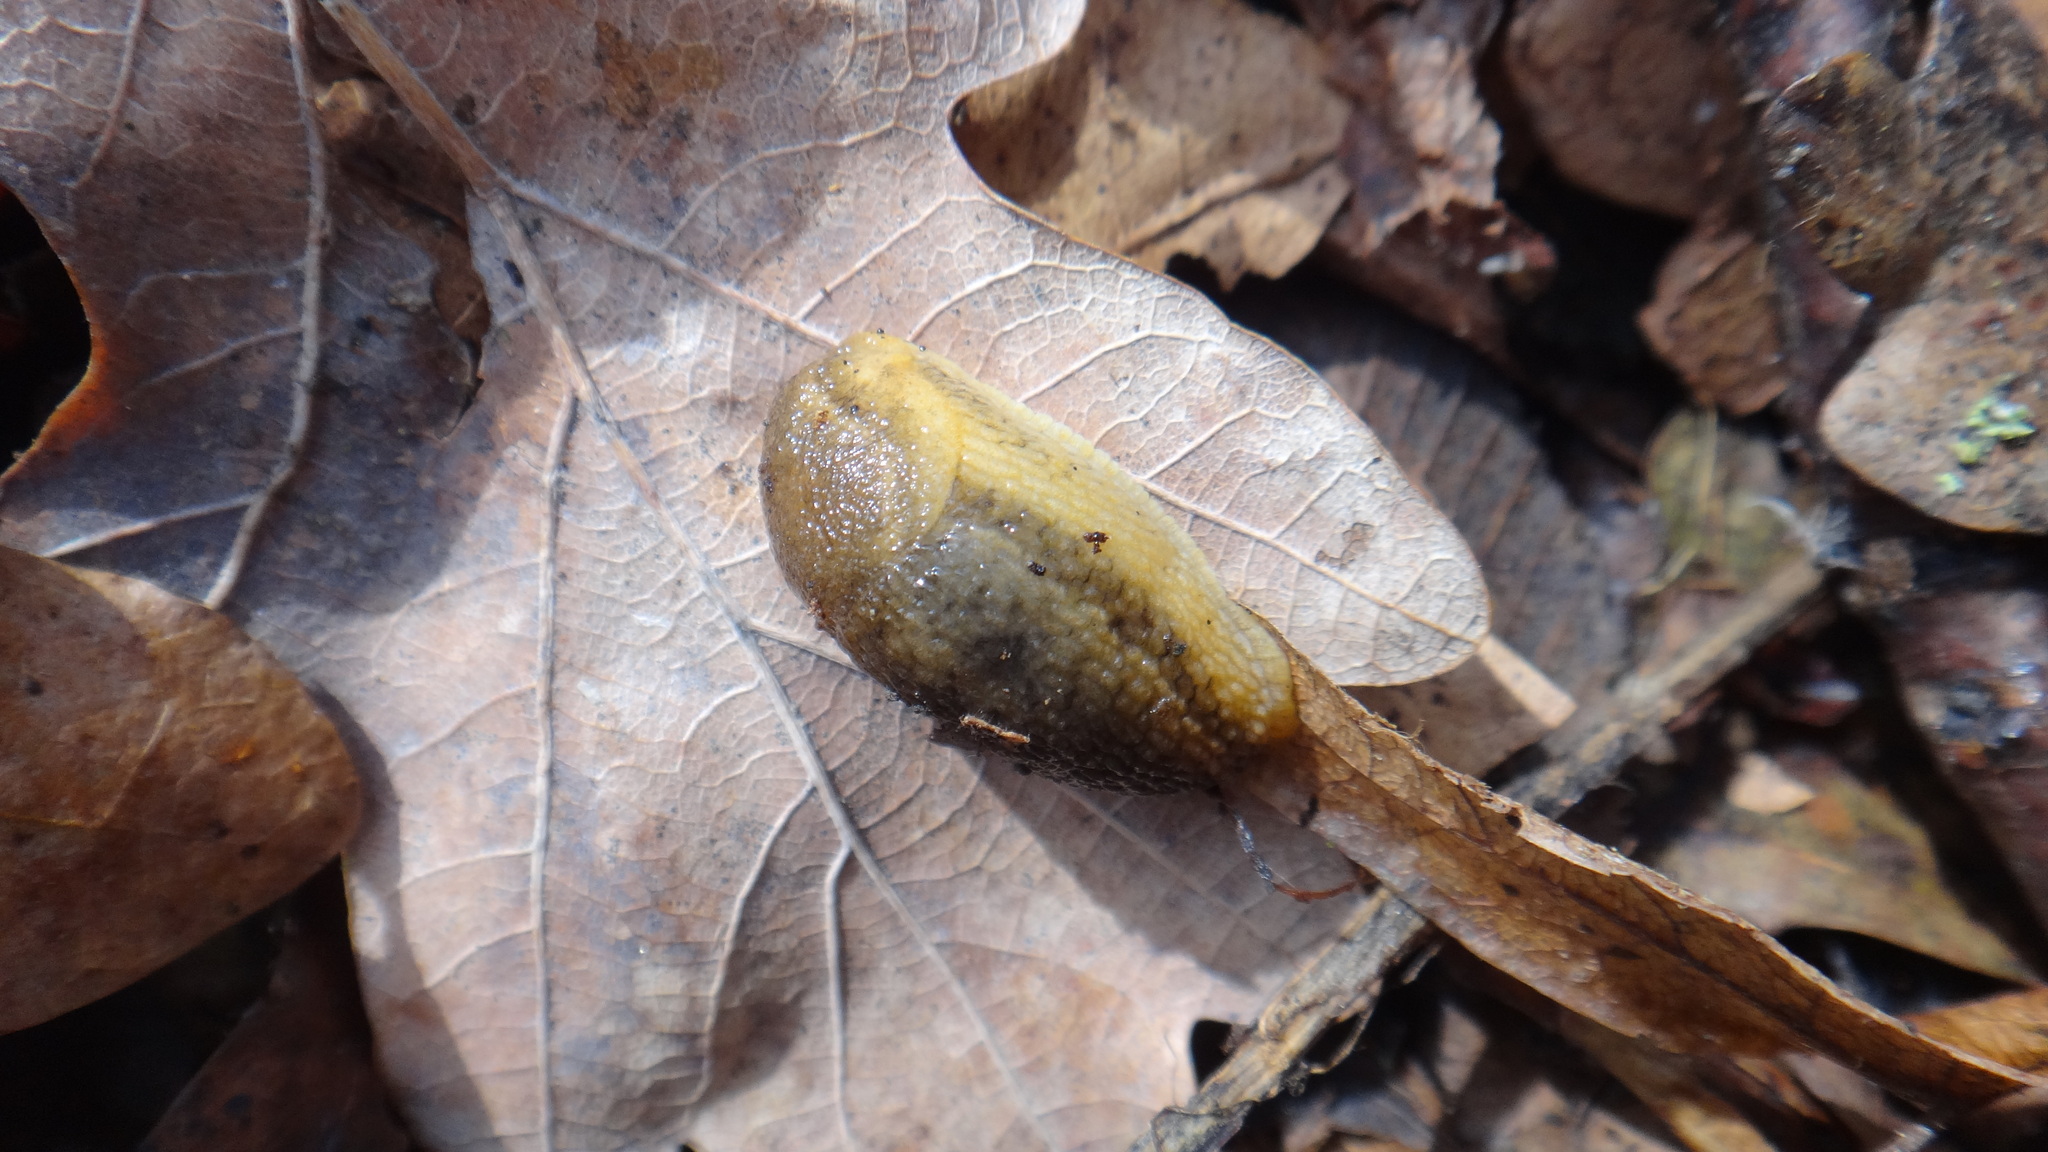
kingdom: Animalia
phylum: Mollusca
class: Gastropoda
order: Stylommatophora
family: Arionidae
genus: Arion
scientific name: Arion fuscus
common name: Northern dusky slug
